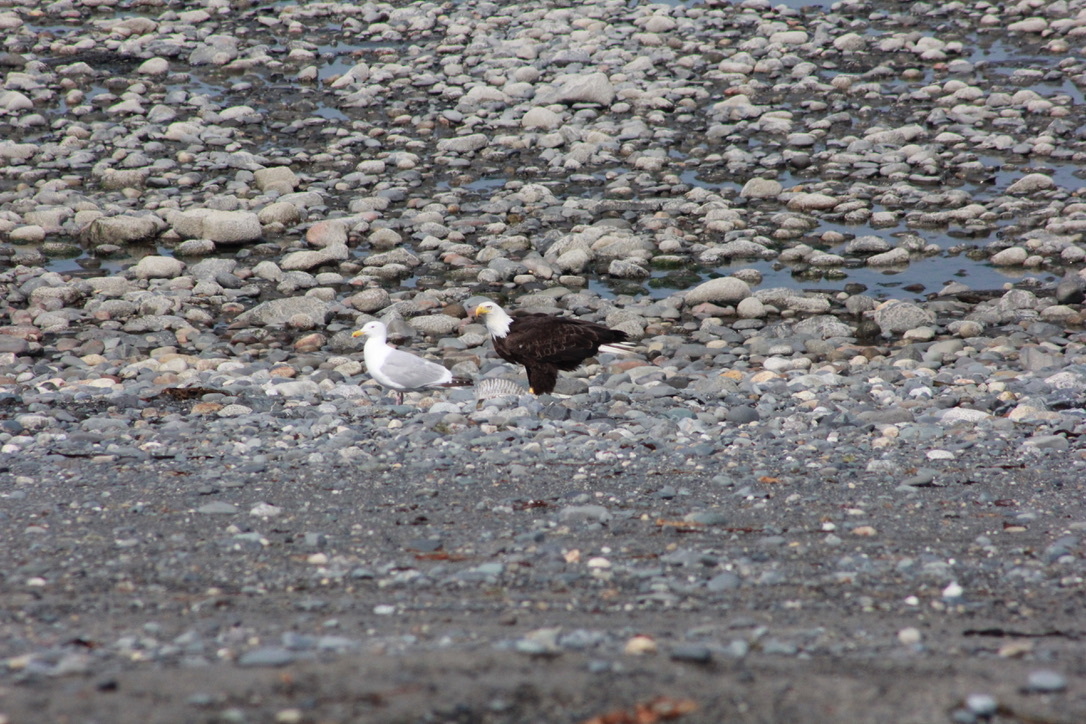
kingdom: Animalia
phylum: Chordata
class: Aves
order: Accipitriformes
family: Accipitridae
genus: Haliaeetus
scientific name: Haliaeetus leucocephalus
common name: Bald eagle
